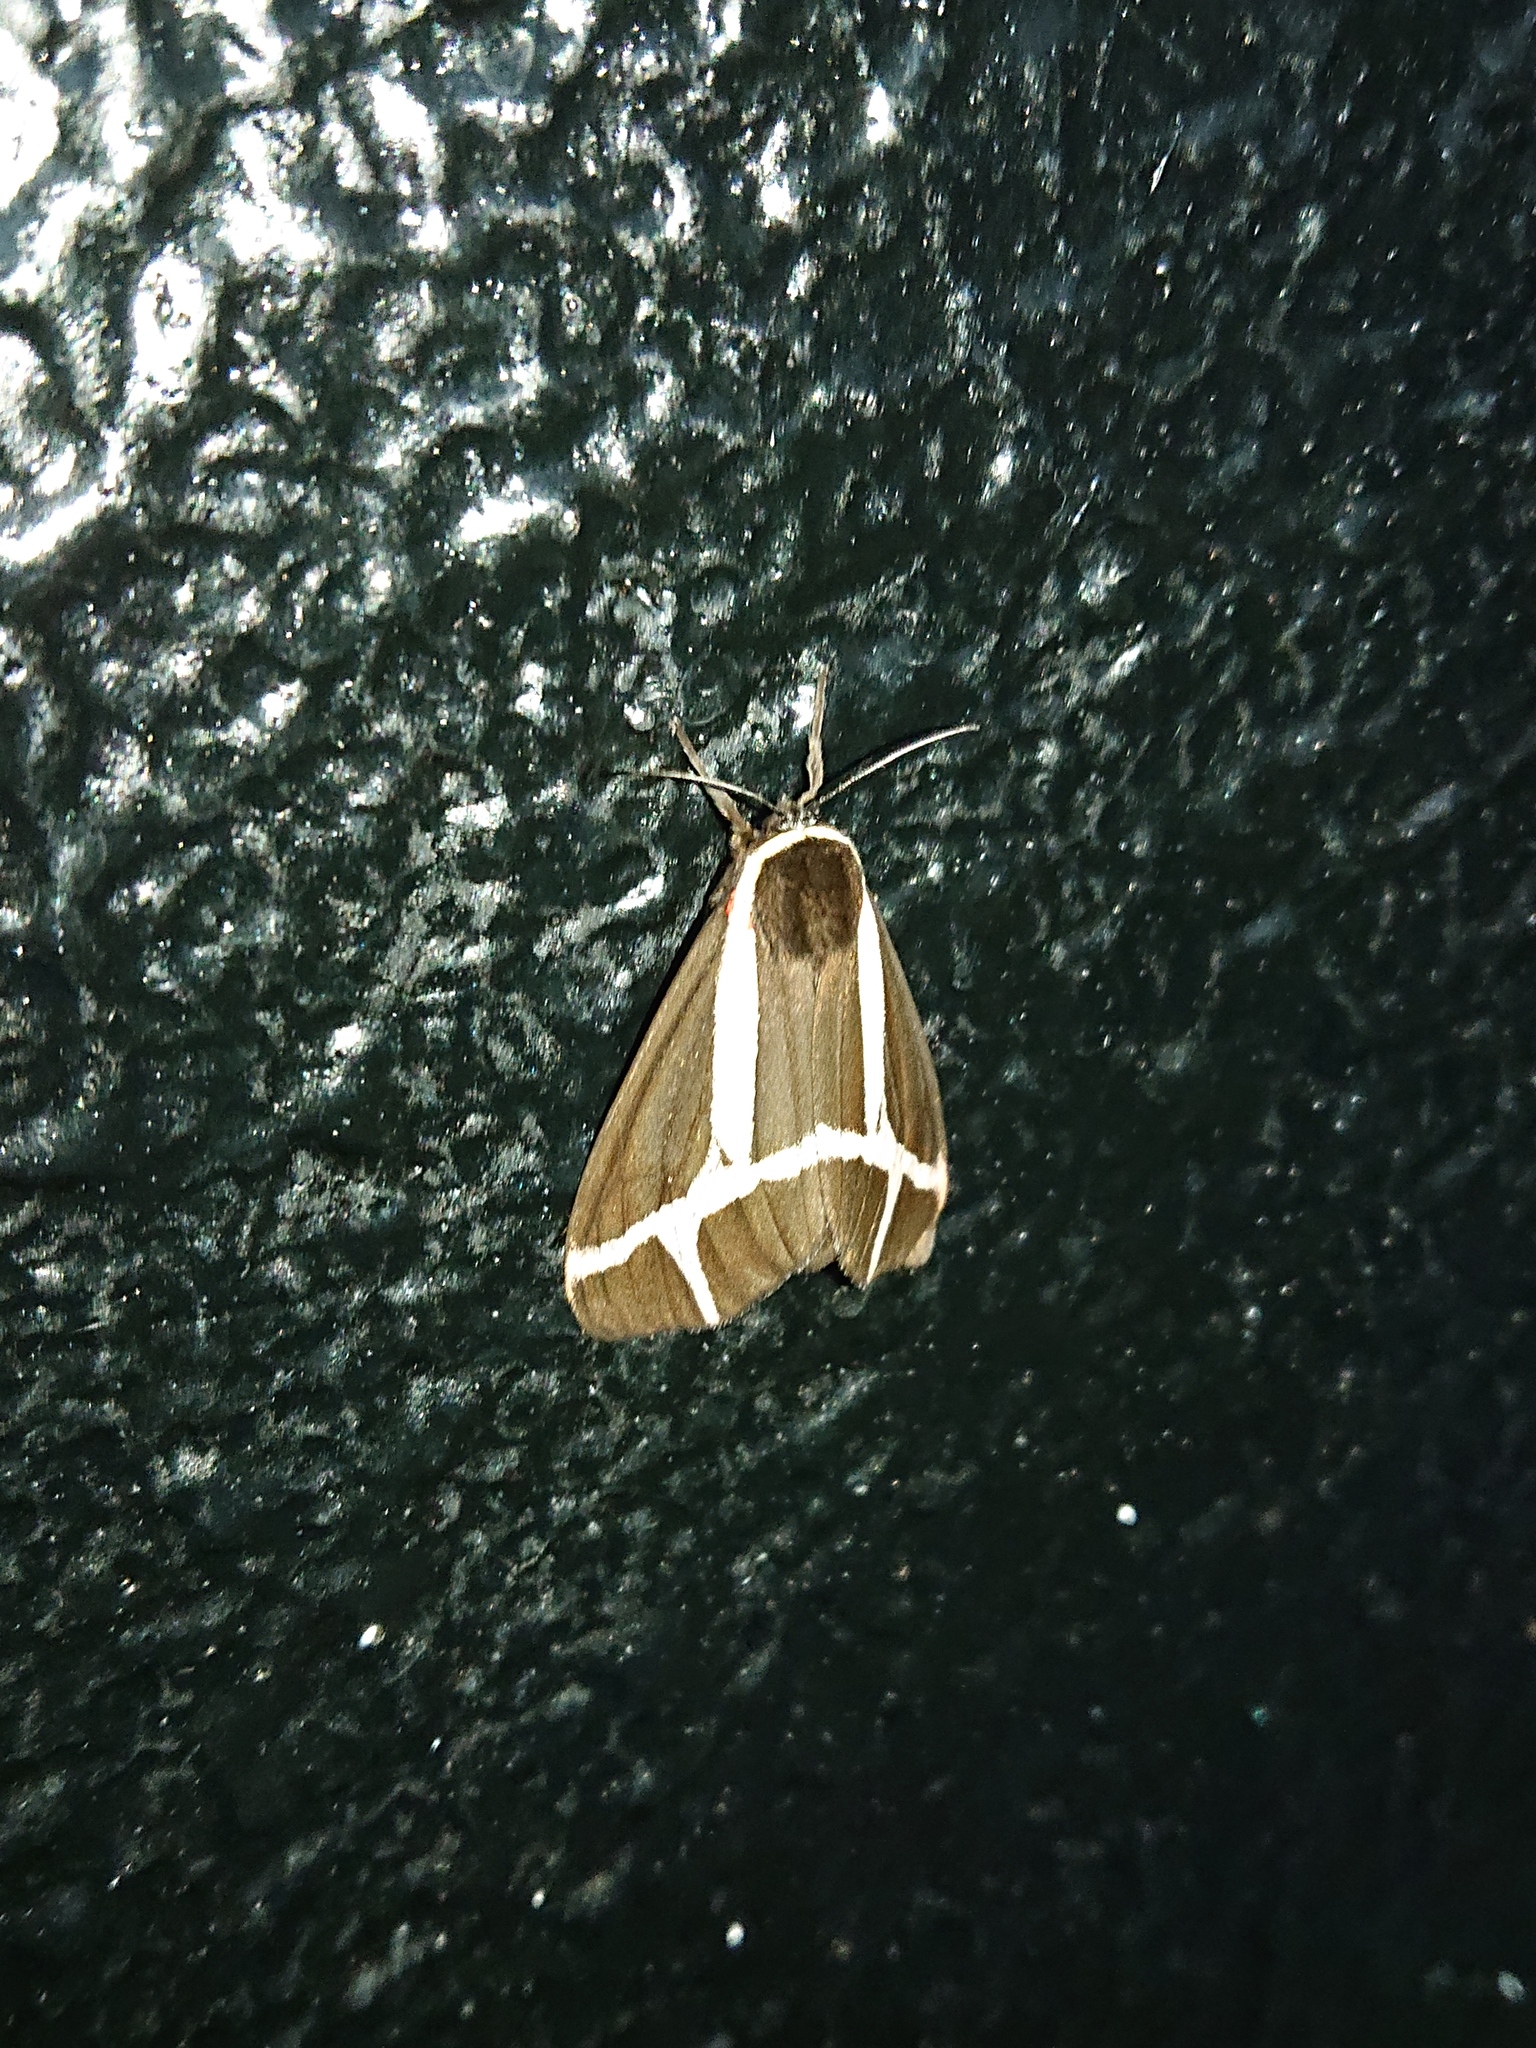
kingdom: Animalia
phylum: Arthropoda
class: Insecta
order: Lepidoptera
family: Erebidae
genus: Dysschema
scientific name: Dysschema sacrifica
